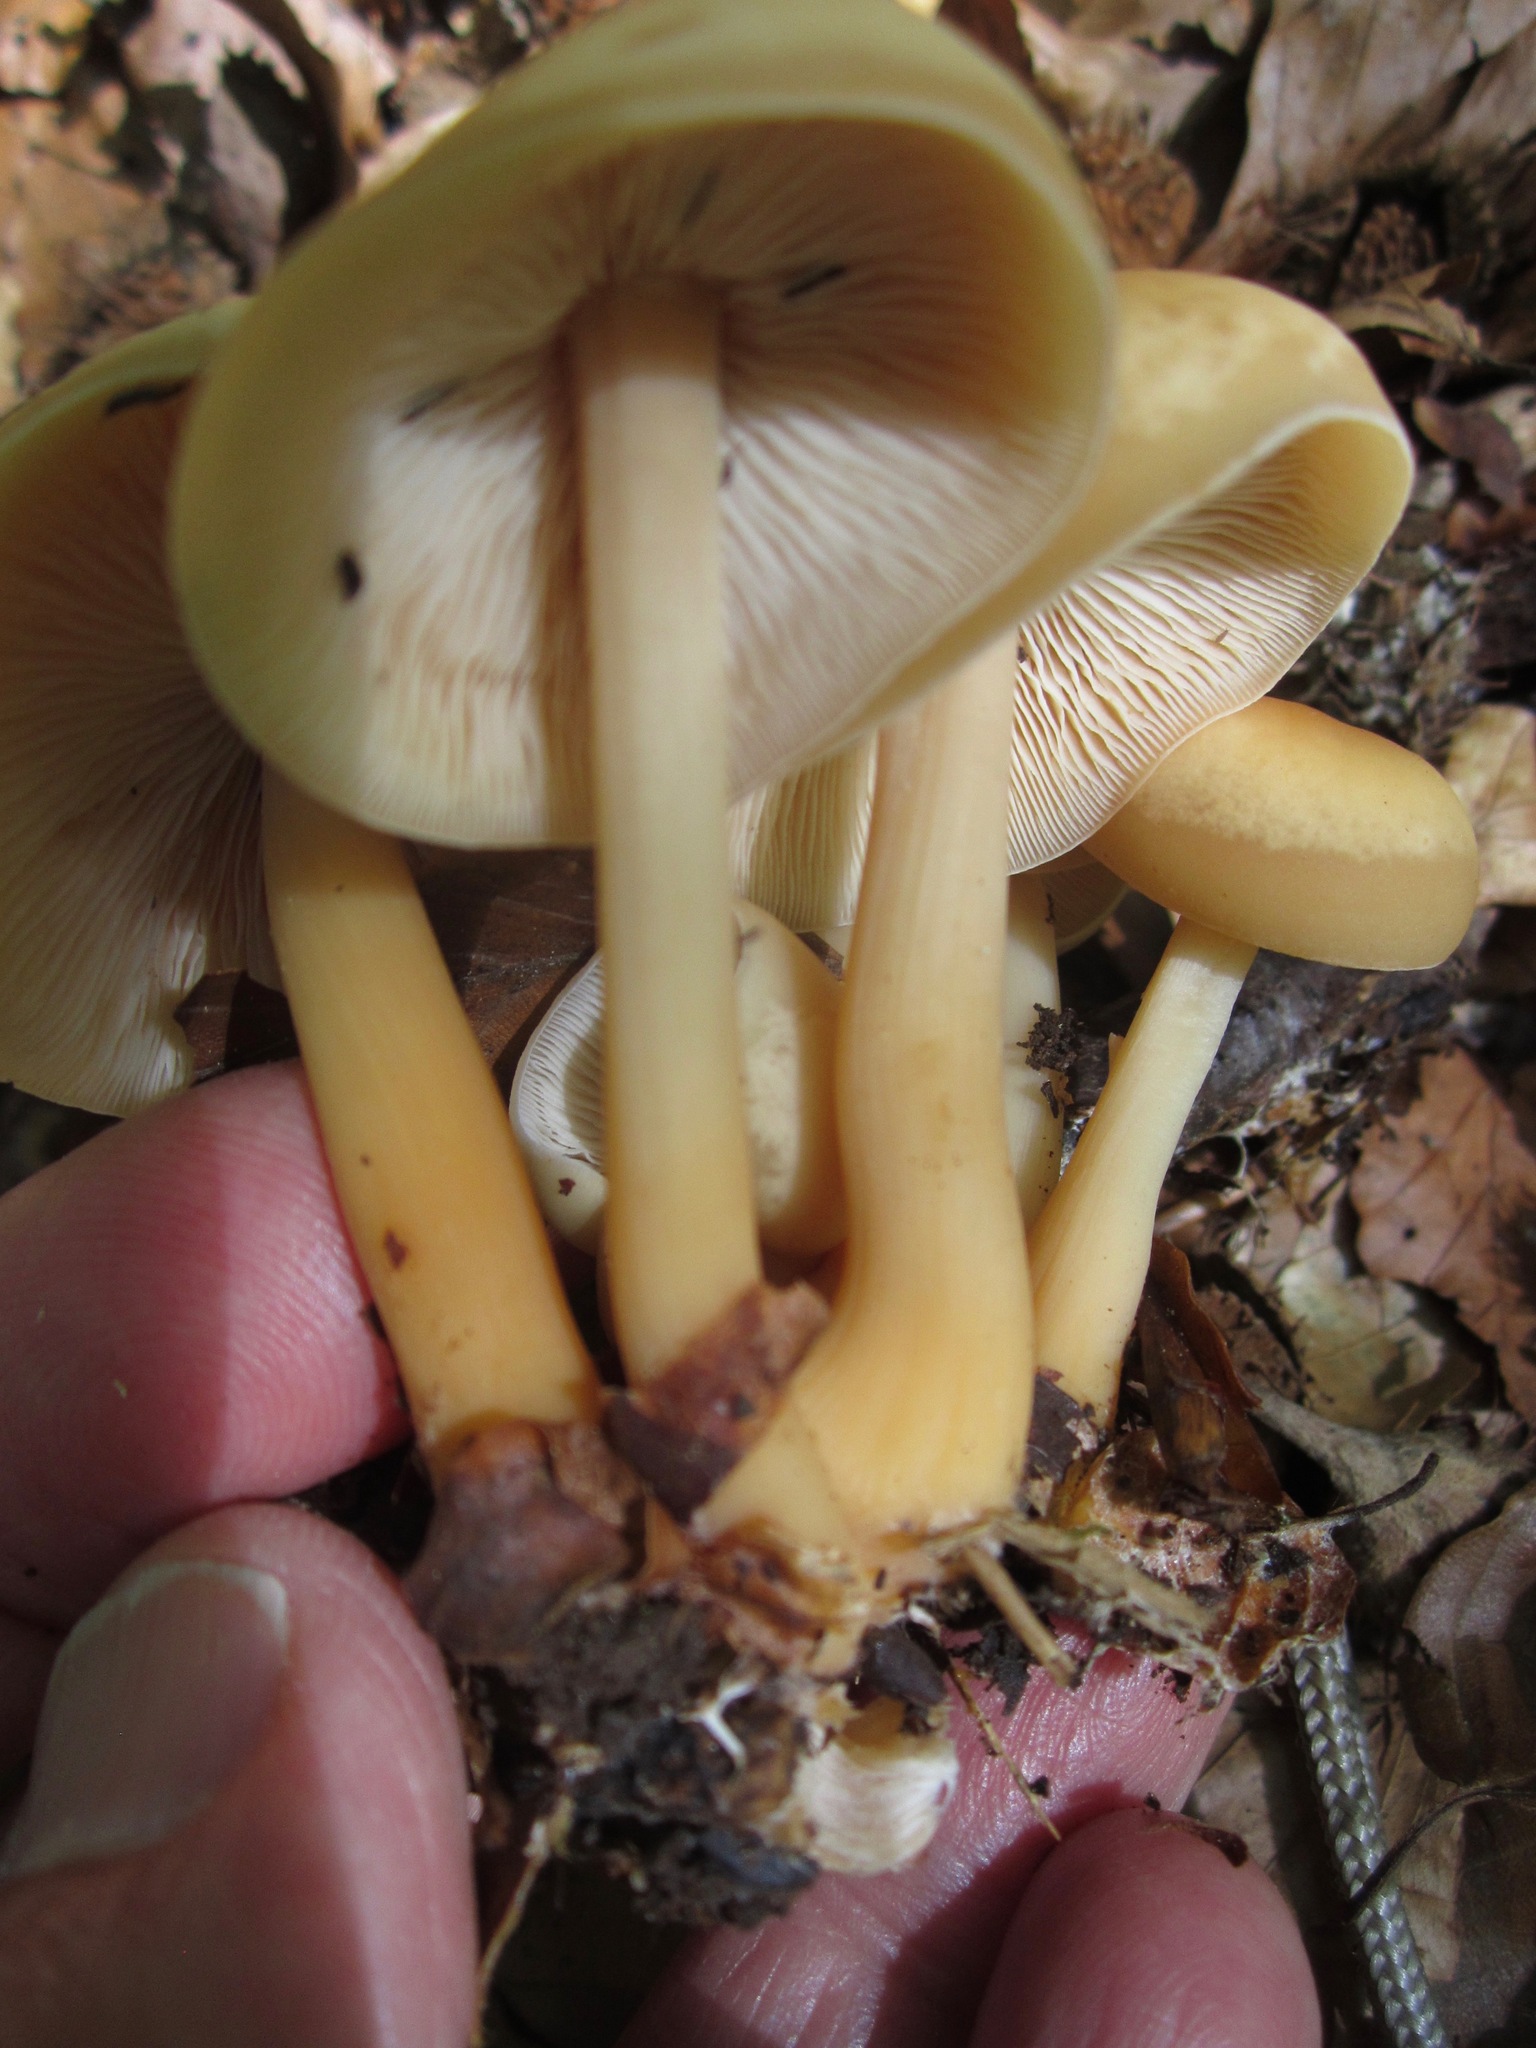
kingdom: Fungi
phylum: Basidiomycota
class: Agaricomycetes
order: Agaricales
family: Marasmiaceae
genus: Marasmius
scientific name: Marasmius strictipes
